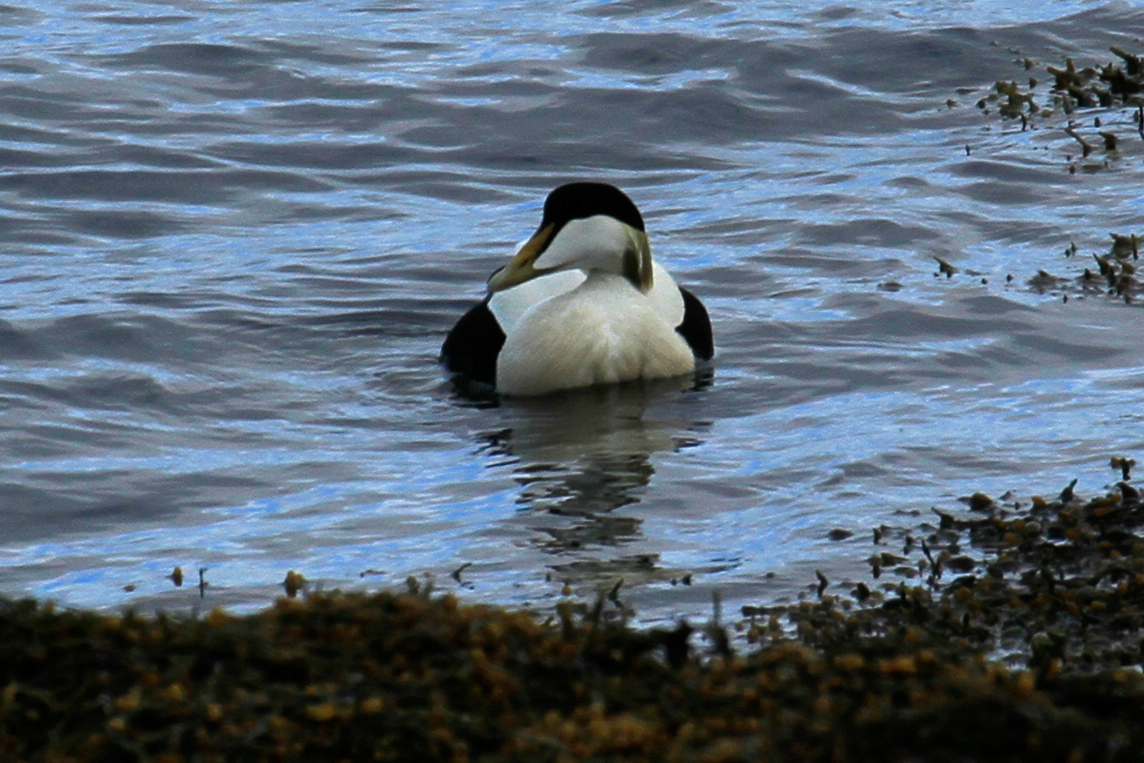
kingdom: Animalia
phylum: Chordata
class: Aves
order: Anseriformes
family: Anatidae
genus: Somateria
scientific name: Somateria mollissima
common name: Common eider
